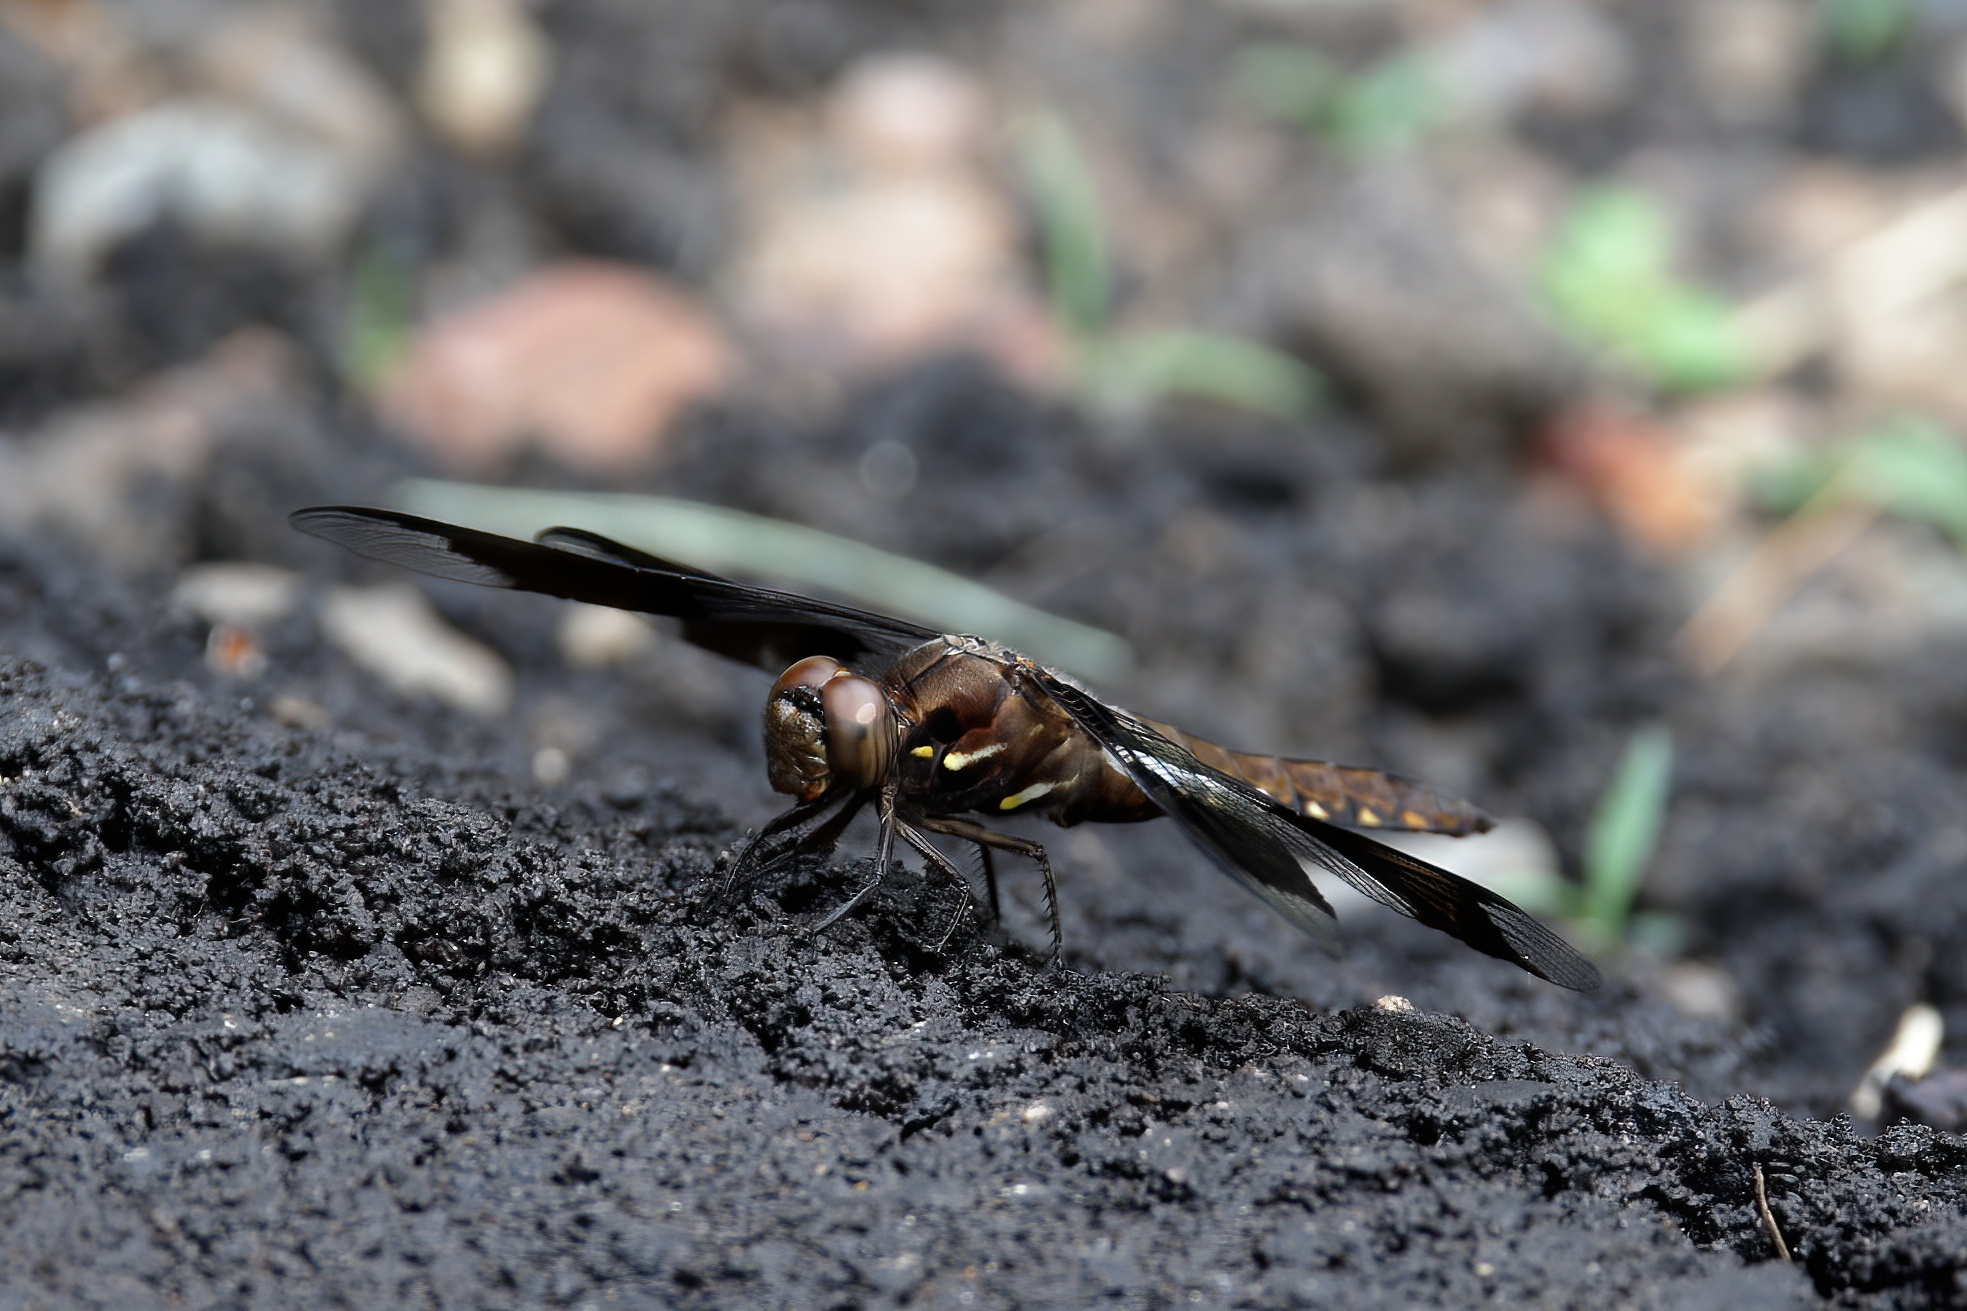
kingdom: Animalia
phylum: Arthropoda
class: Insecta
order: Odonata
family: Libellulidae
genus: Plathemis
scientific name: Plathemis lydia
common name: Common whitetail
